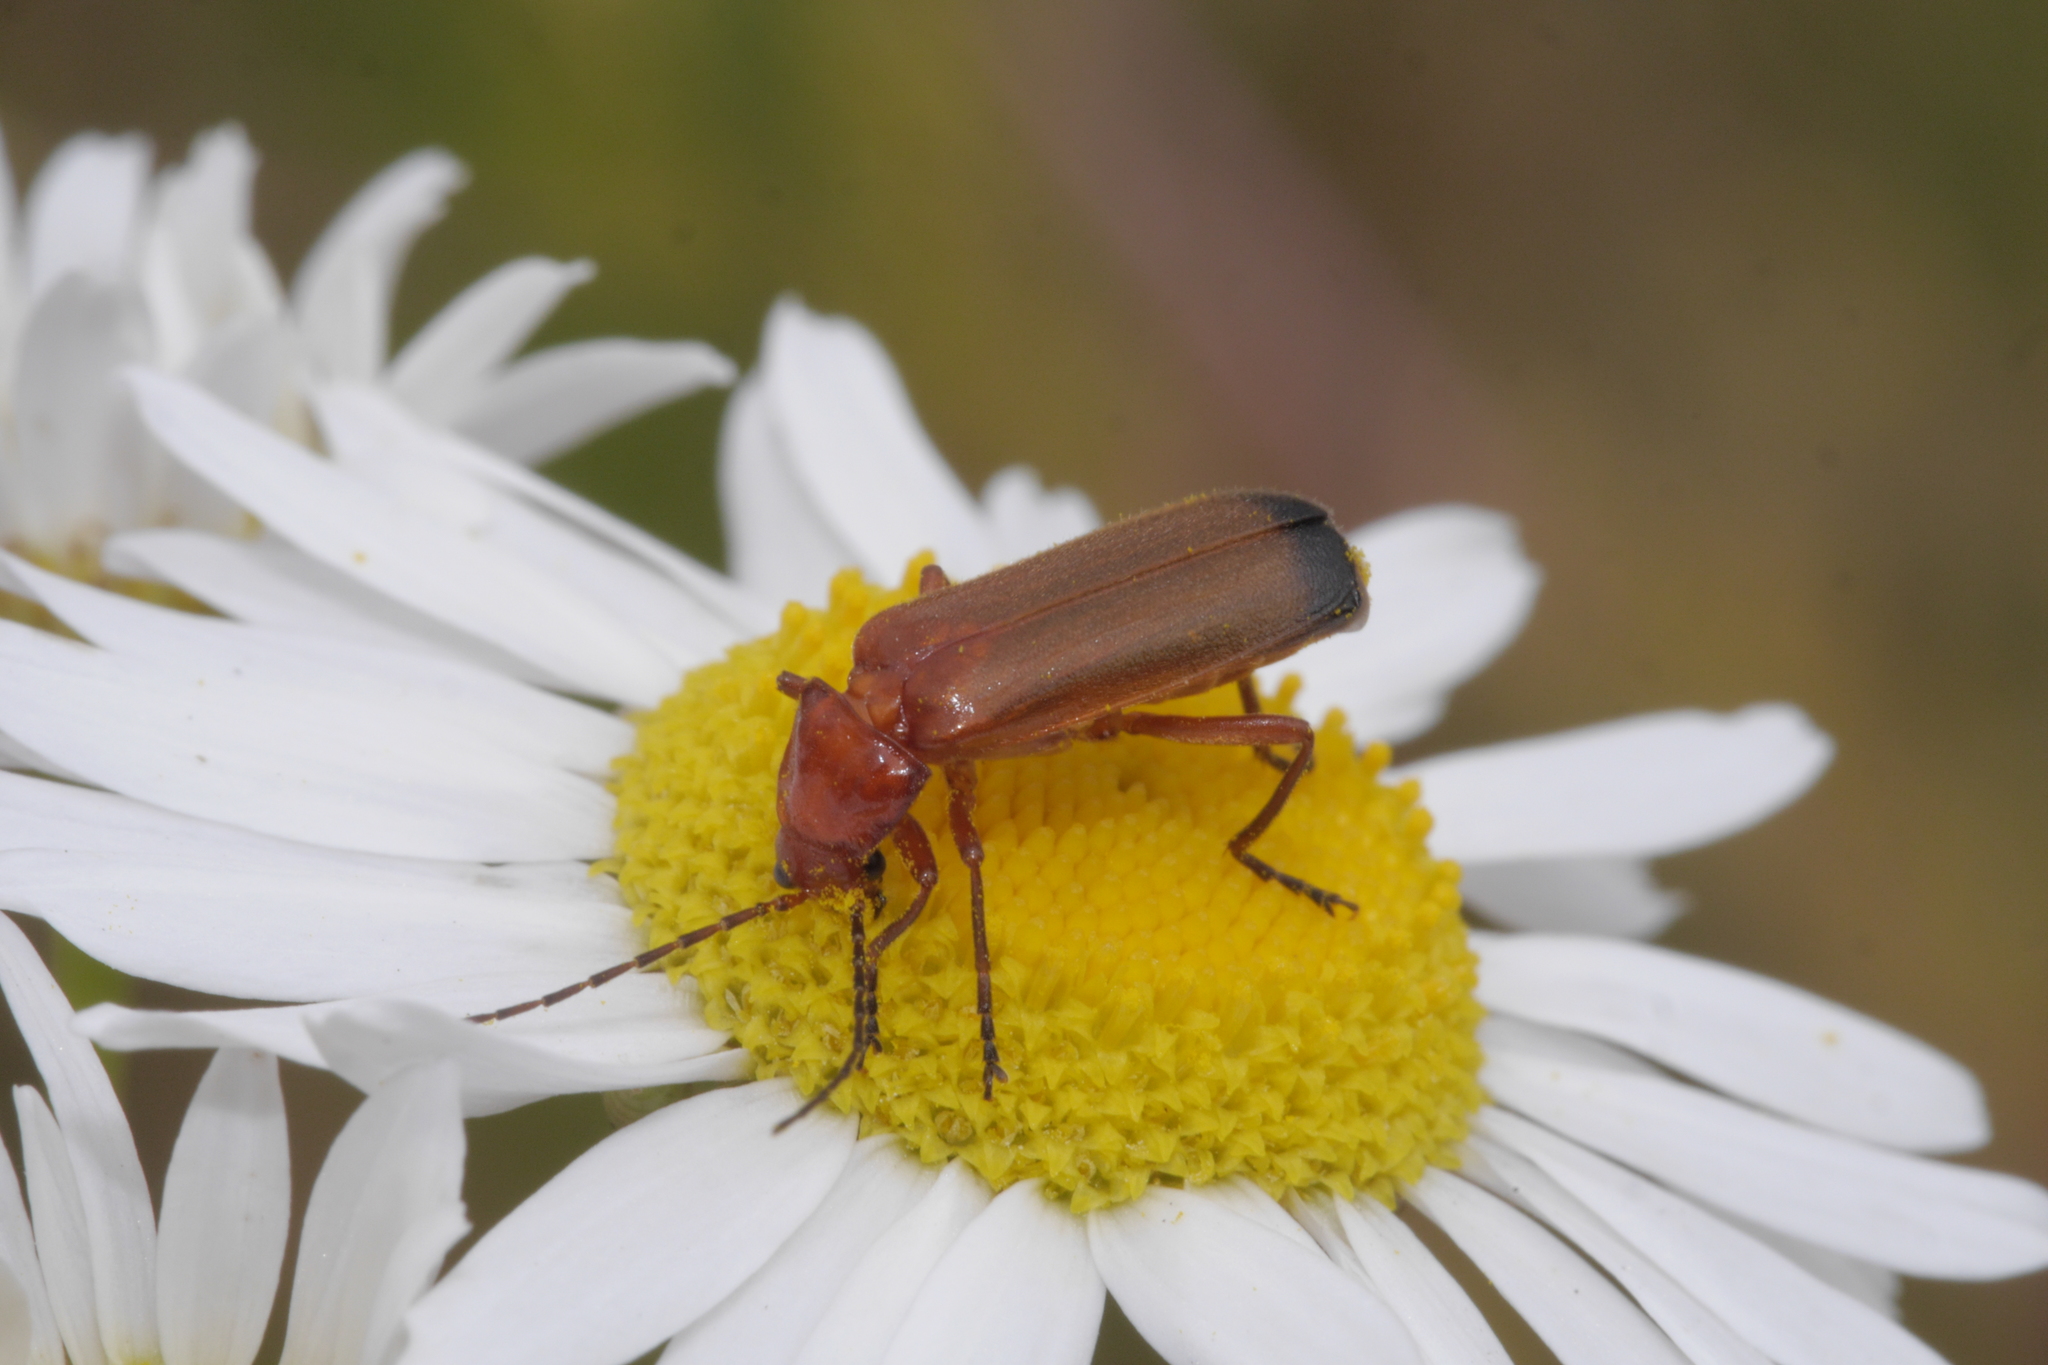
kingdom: Animalia
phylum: Arthropoda
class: Insecta
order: Coleoptera
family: Cantharidae
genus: Rhagonycha
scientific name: Rhagonycha fulva
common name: Common red soldier beetle
